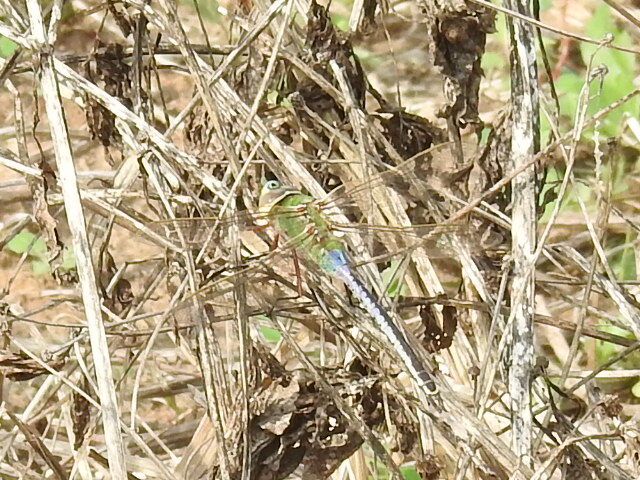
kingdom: Animalia
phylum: Arthropoda
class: Insecta
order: Odonata
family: Aeshnidae
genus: Anax
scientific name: Anax junius
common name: Common green darner
